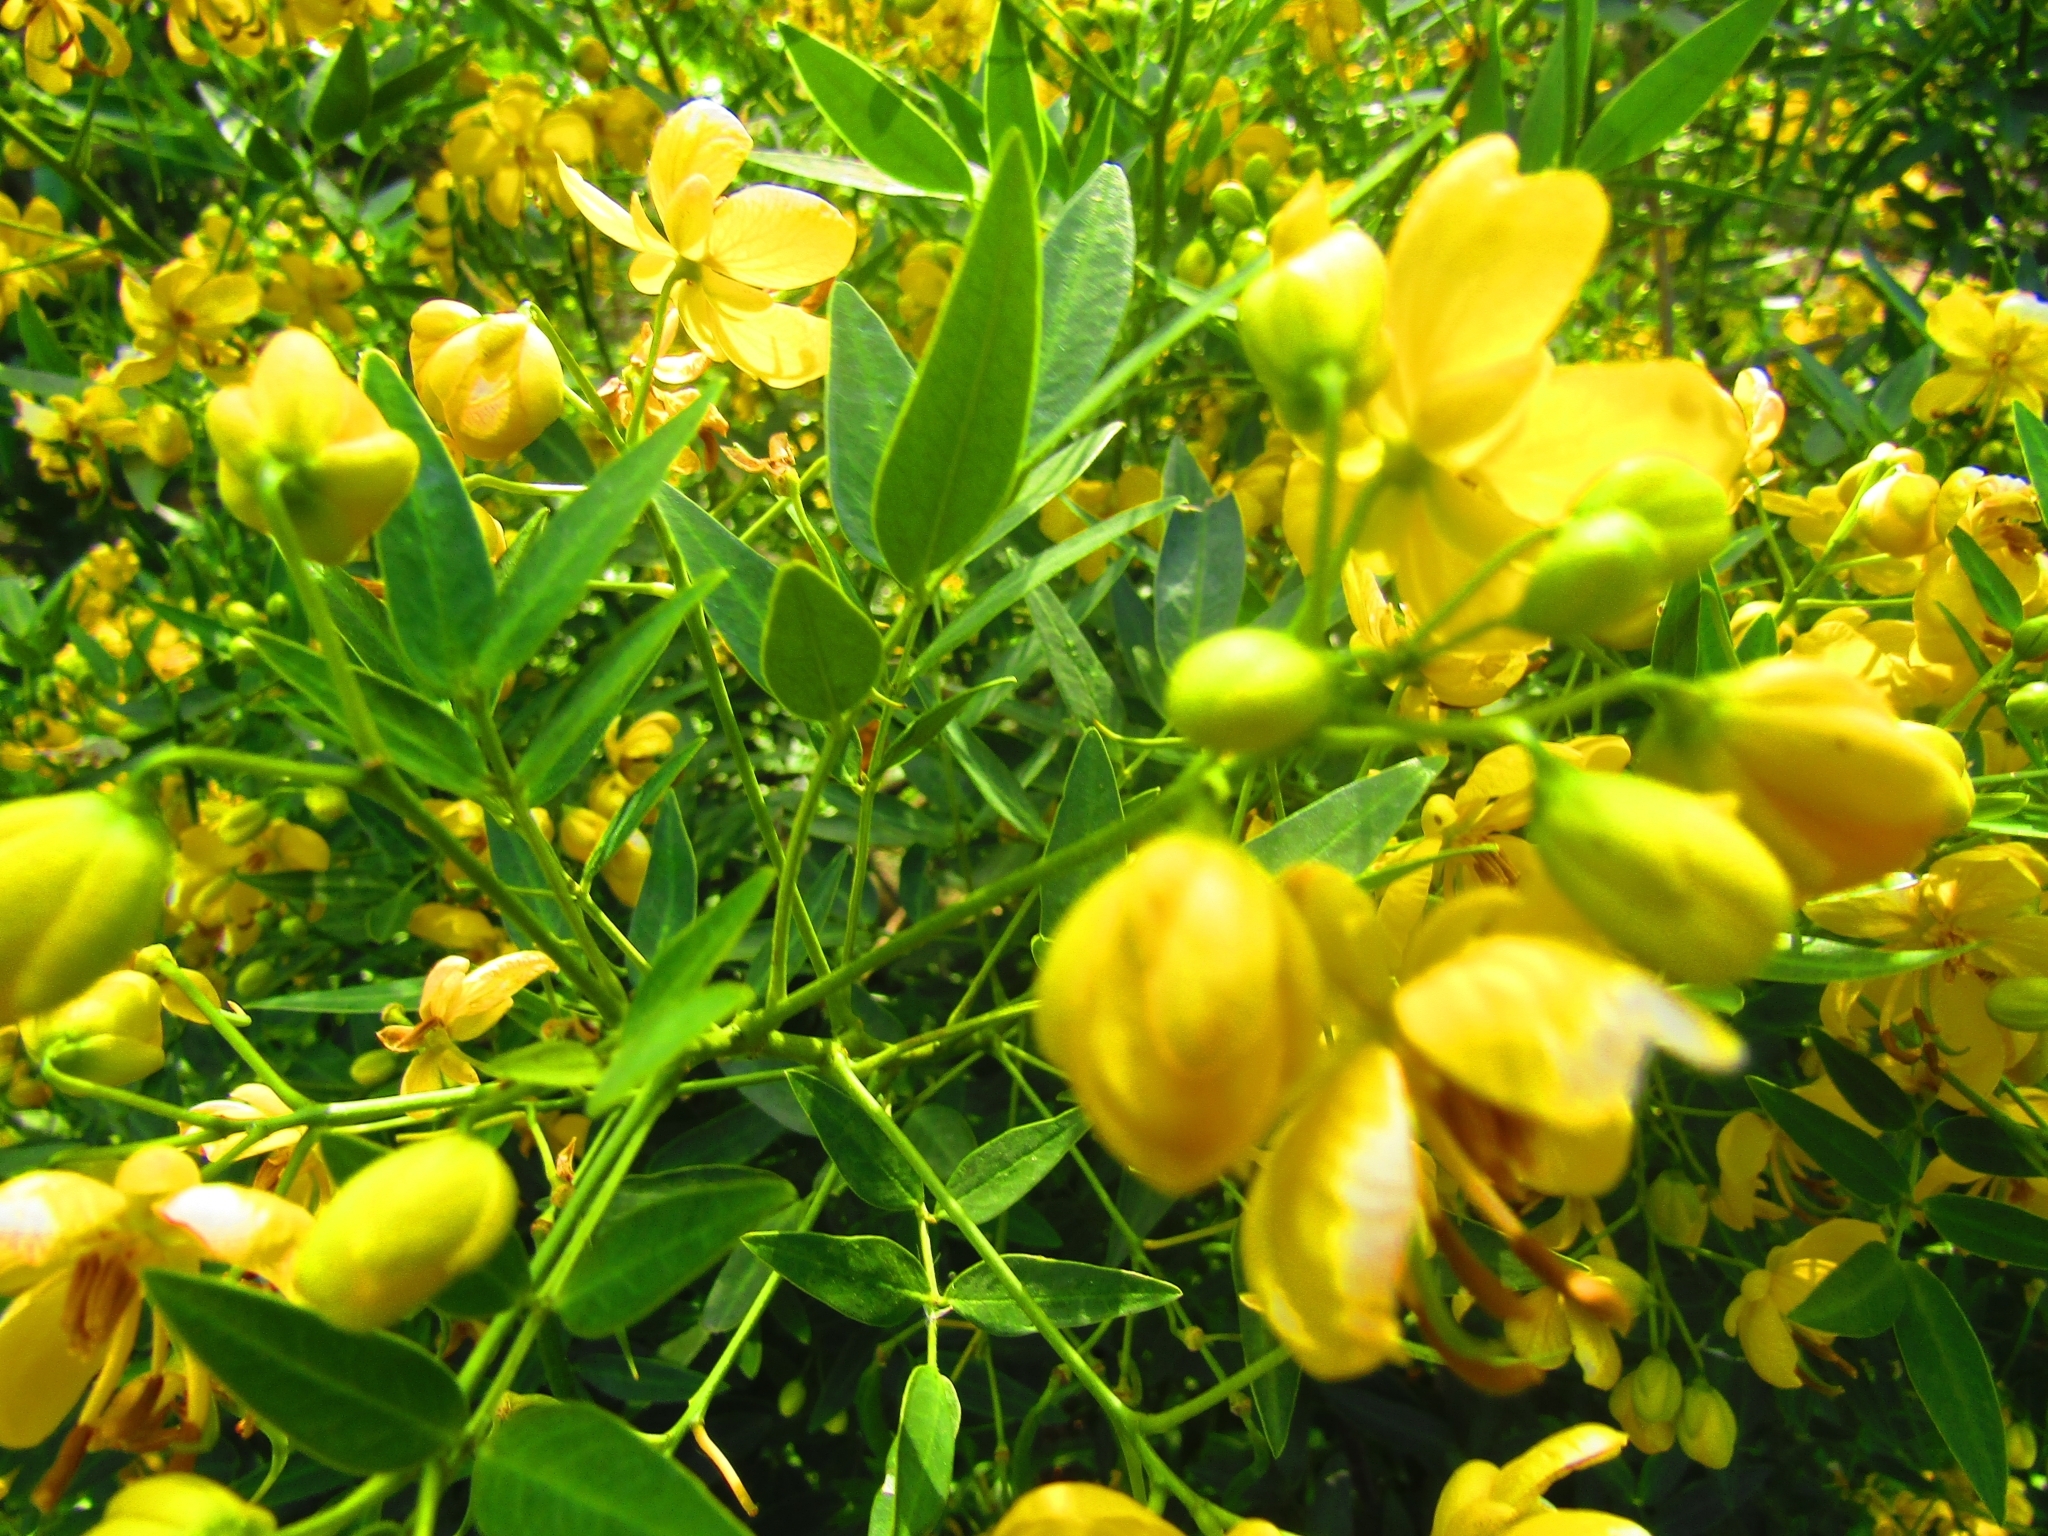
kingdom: Plantae
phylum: Tracheophyta
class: Magnoliopsida
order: Fabales
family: Fabaceae
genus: Senna
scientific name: Senna corymbosa
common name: Argentine senna
